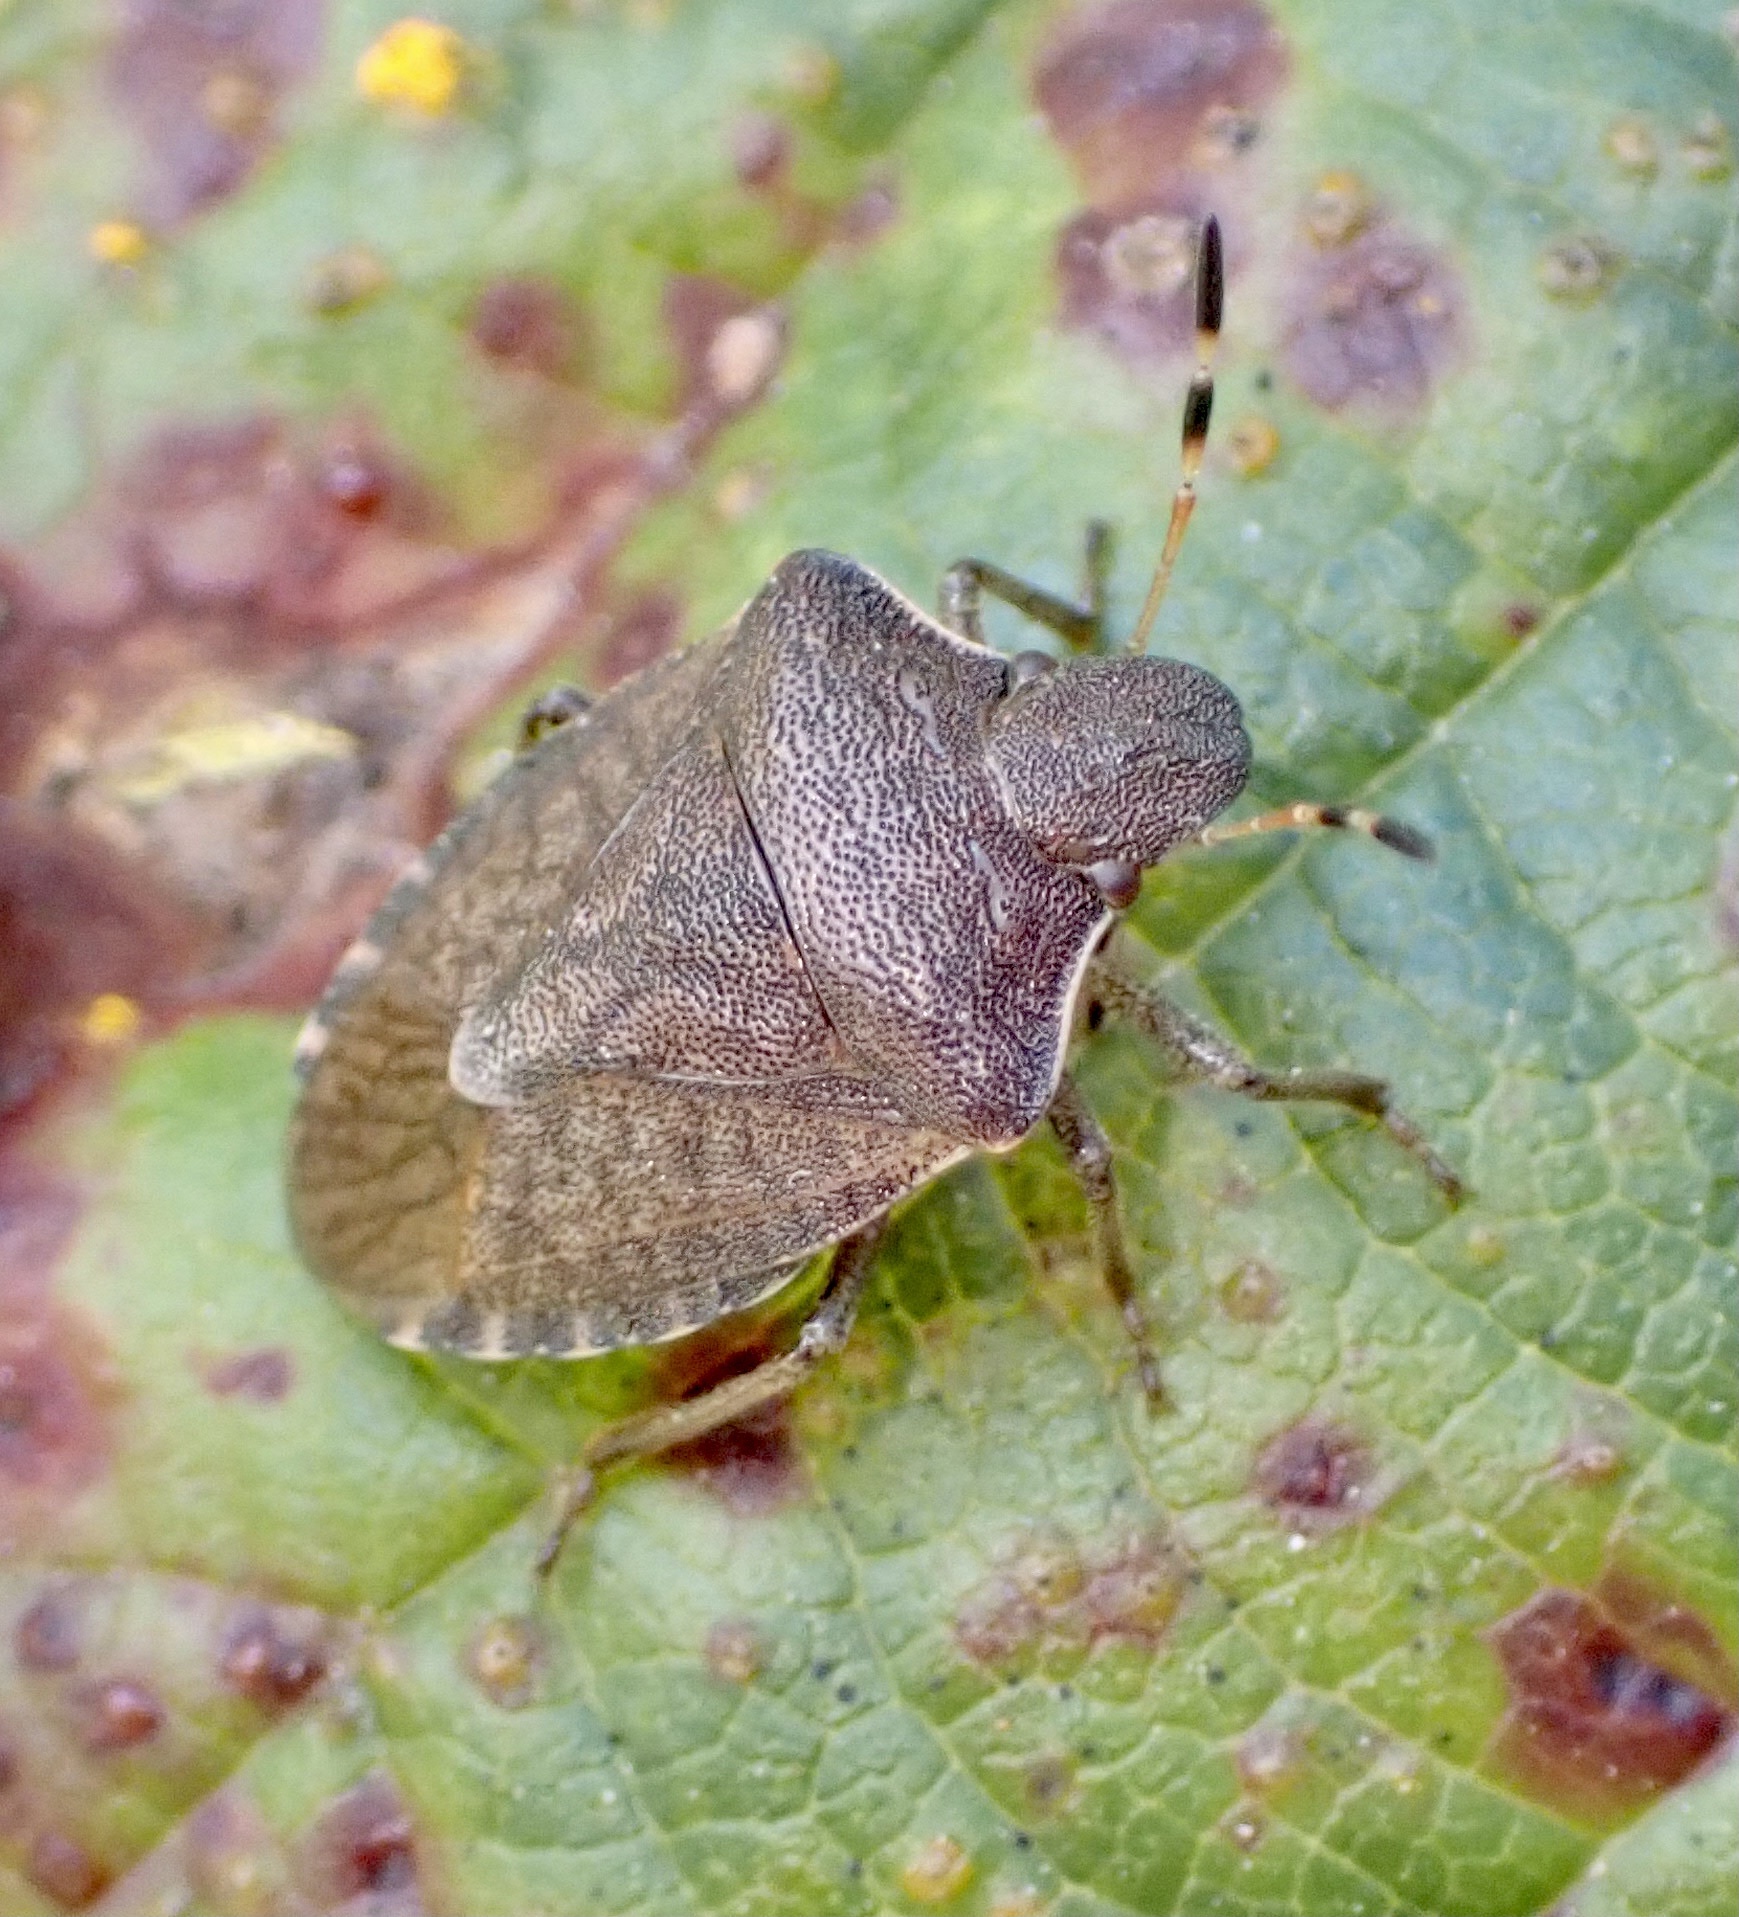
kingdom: Animalia
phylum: Arthropoda
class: Insecta
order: Hemiptera
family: Pentatomidae
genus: Holcostethus
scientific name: Holcostethus strictus
